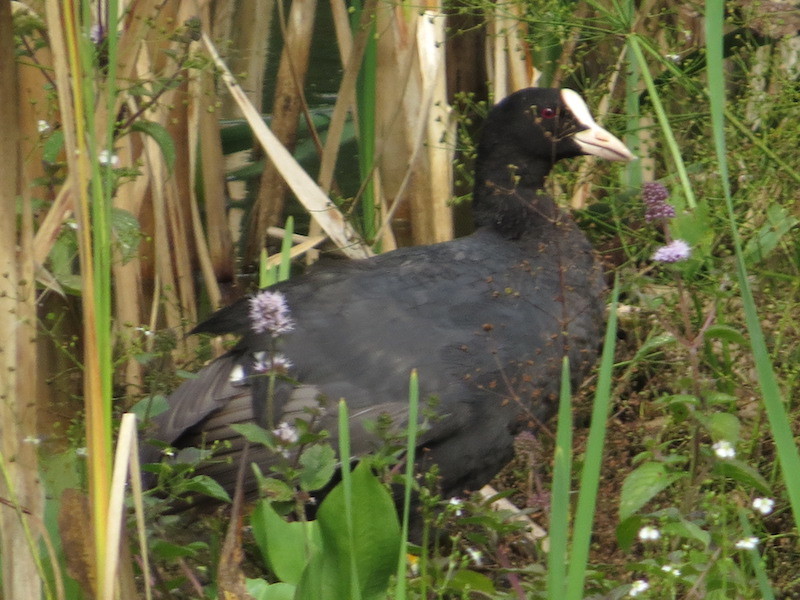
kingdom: Animalia
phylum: Chordata
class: Aves
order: Gruiformes
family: Rallidae
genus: Fulica
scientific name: Fulica atra
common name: Eurasian coot
